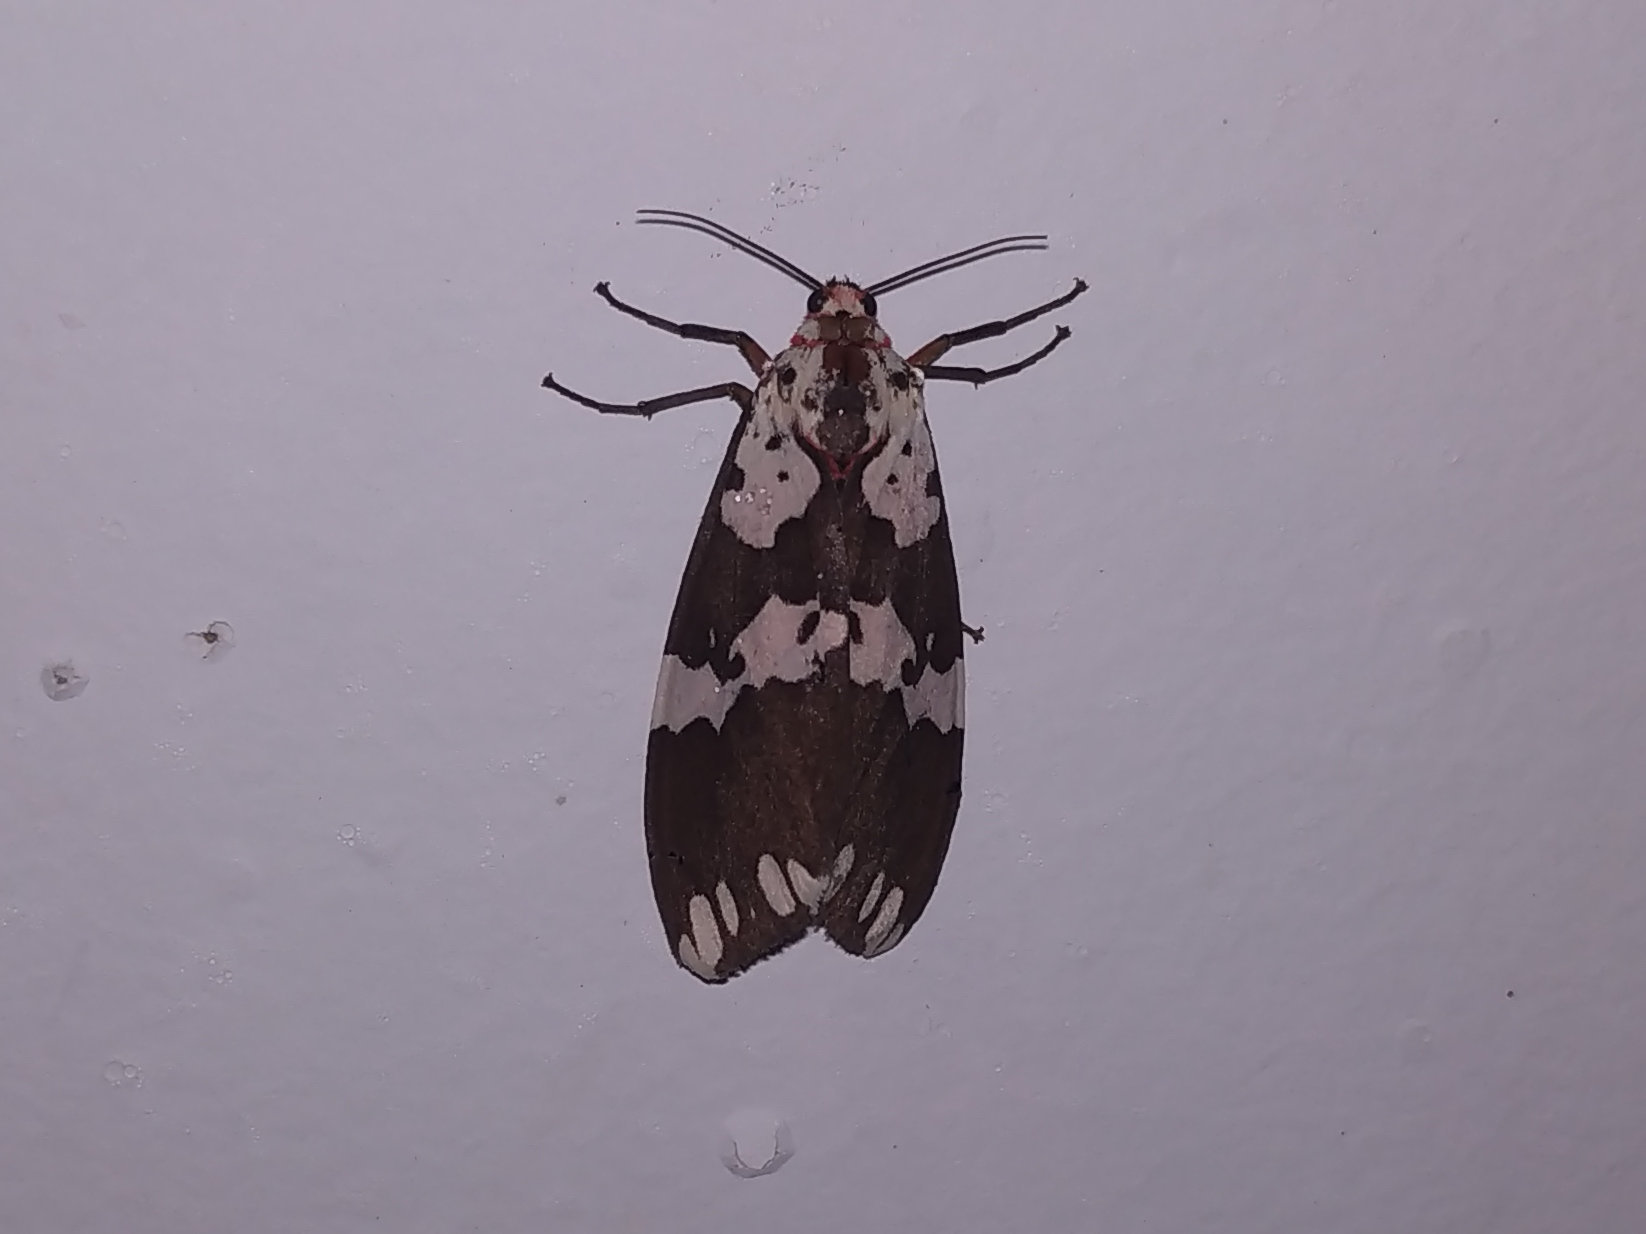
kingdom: Animalia
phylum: Arthropoda
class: Insecta
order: Lepidoptera
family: Erebidae
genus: Pericallia
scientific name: Pericallia
